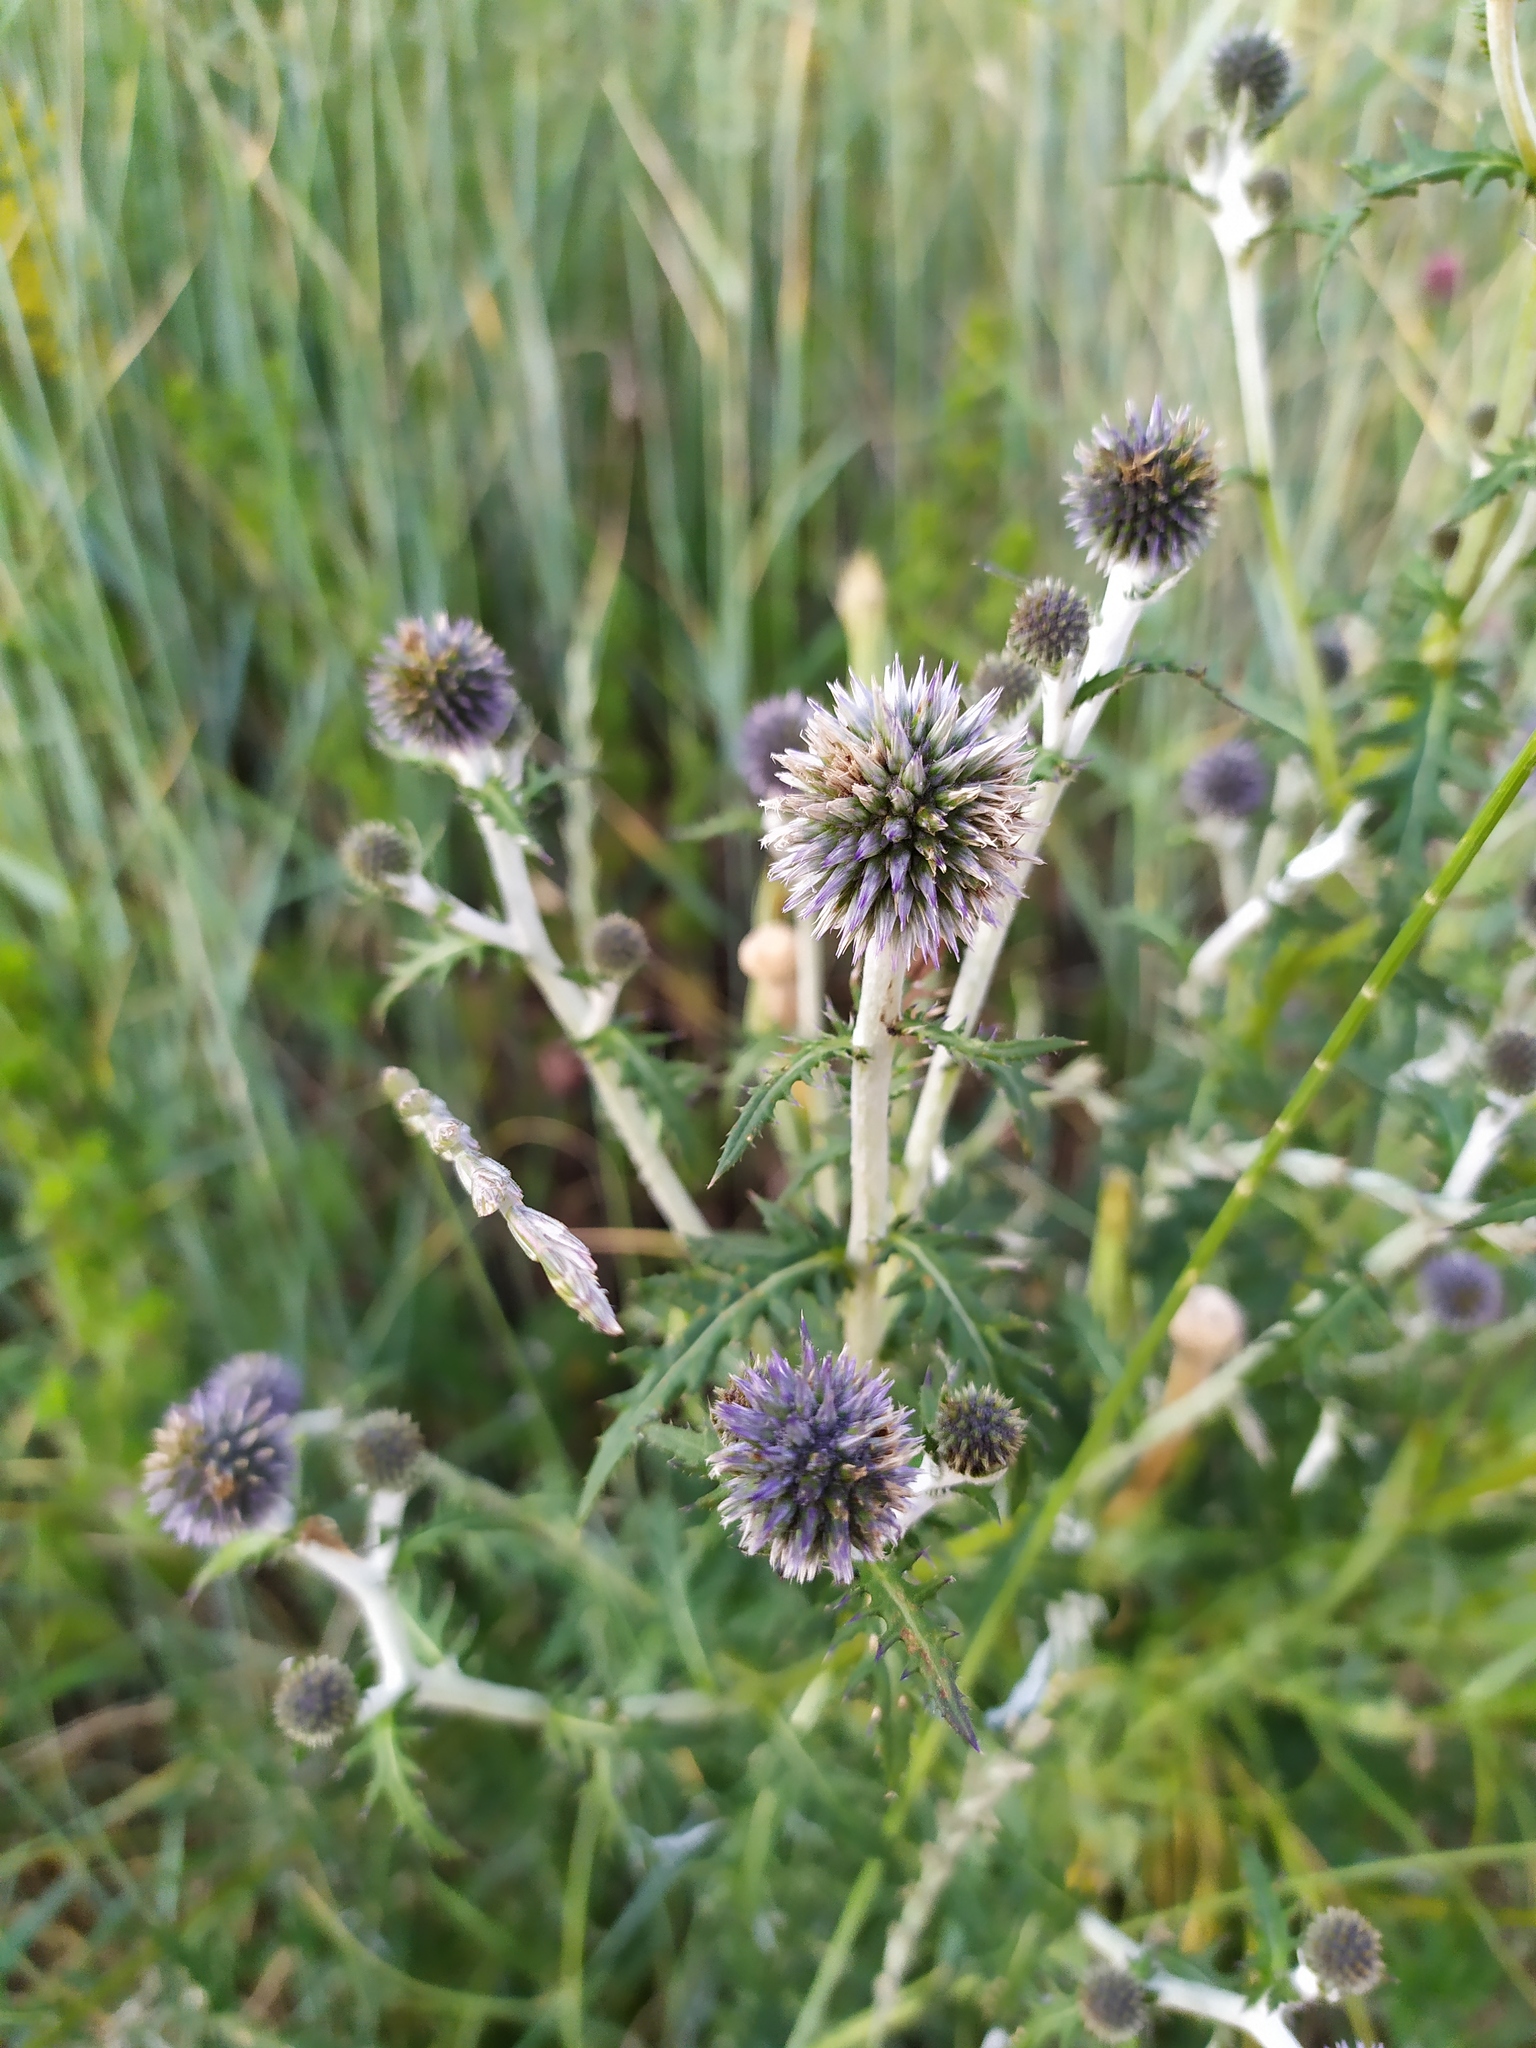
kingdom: Plantae
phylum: Tracheophyta
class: Magnoliopsida
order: Asterales
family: Asteraceae
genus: Echinops
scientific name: Echinops tataricus
